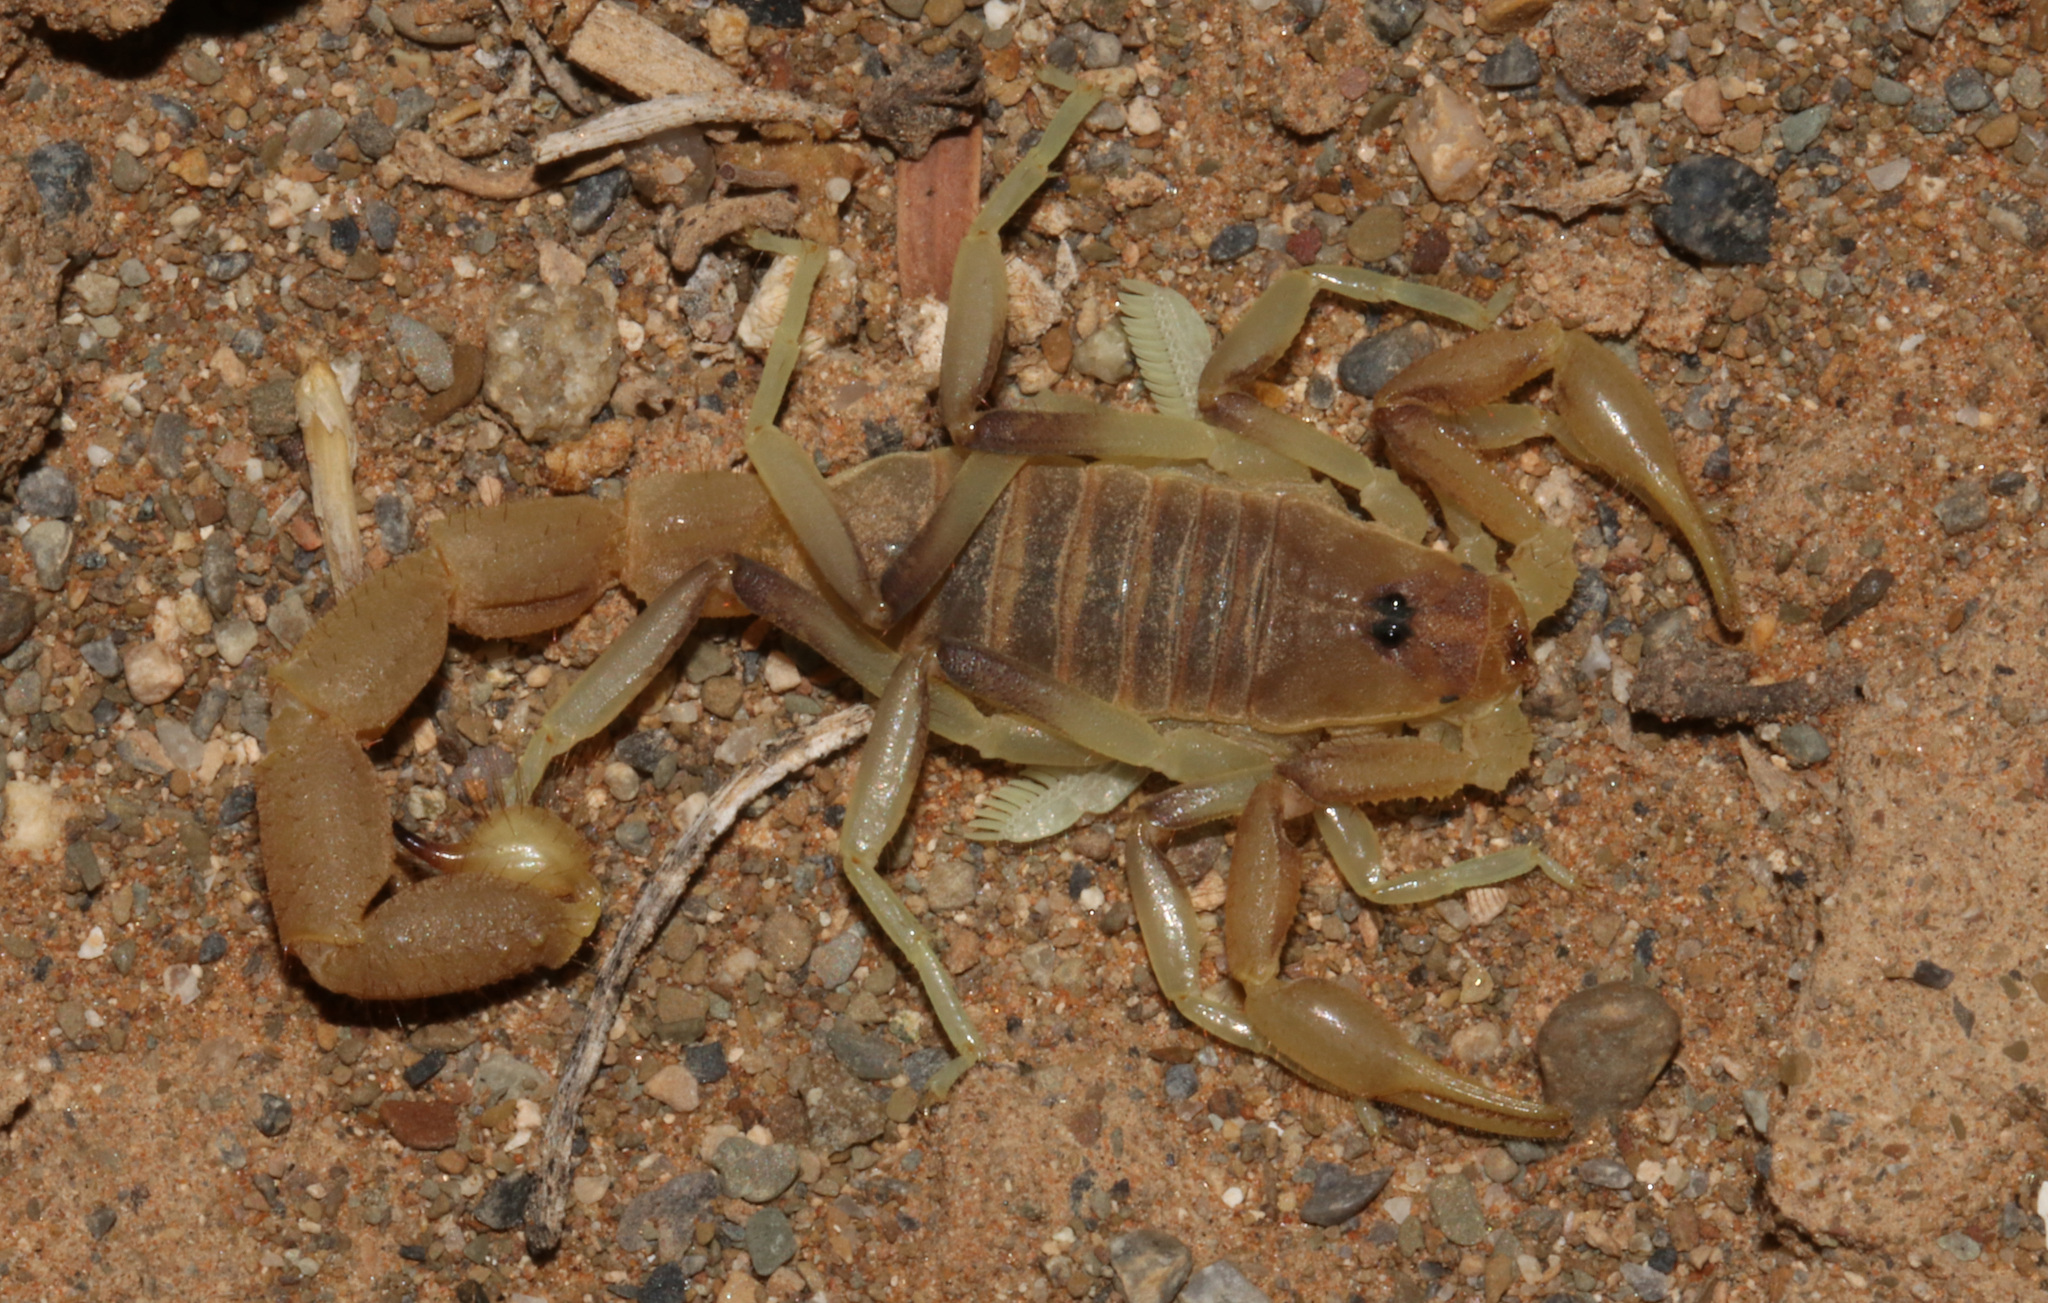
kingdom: Animalia
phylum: Arthropoda
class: Arachnida
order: Scorpiones
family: Buthidae
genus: Parabuthus
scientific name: Parabuthus brevimanus
